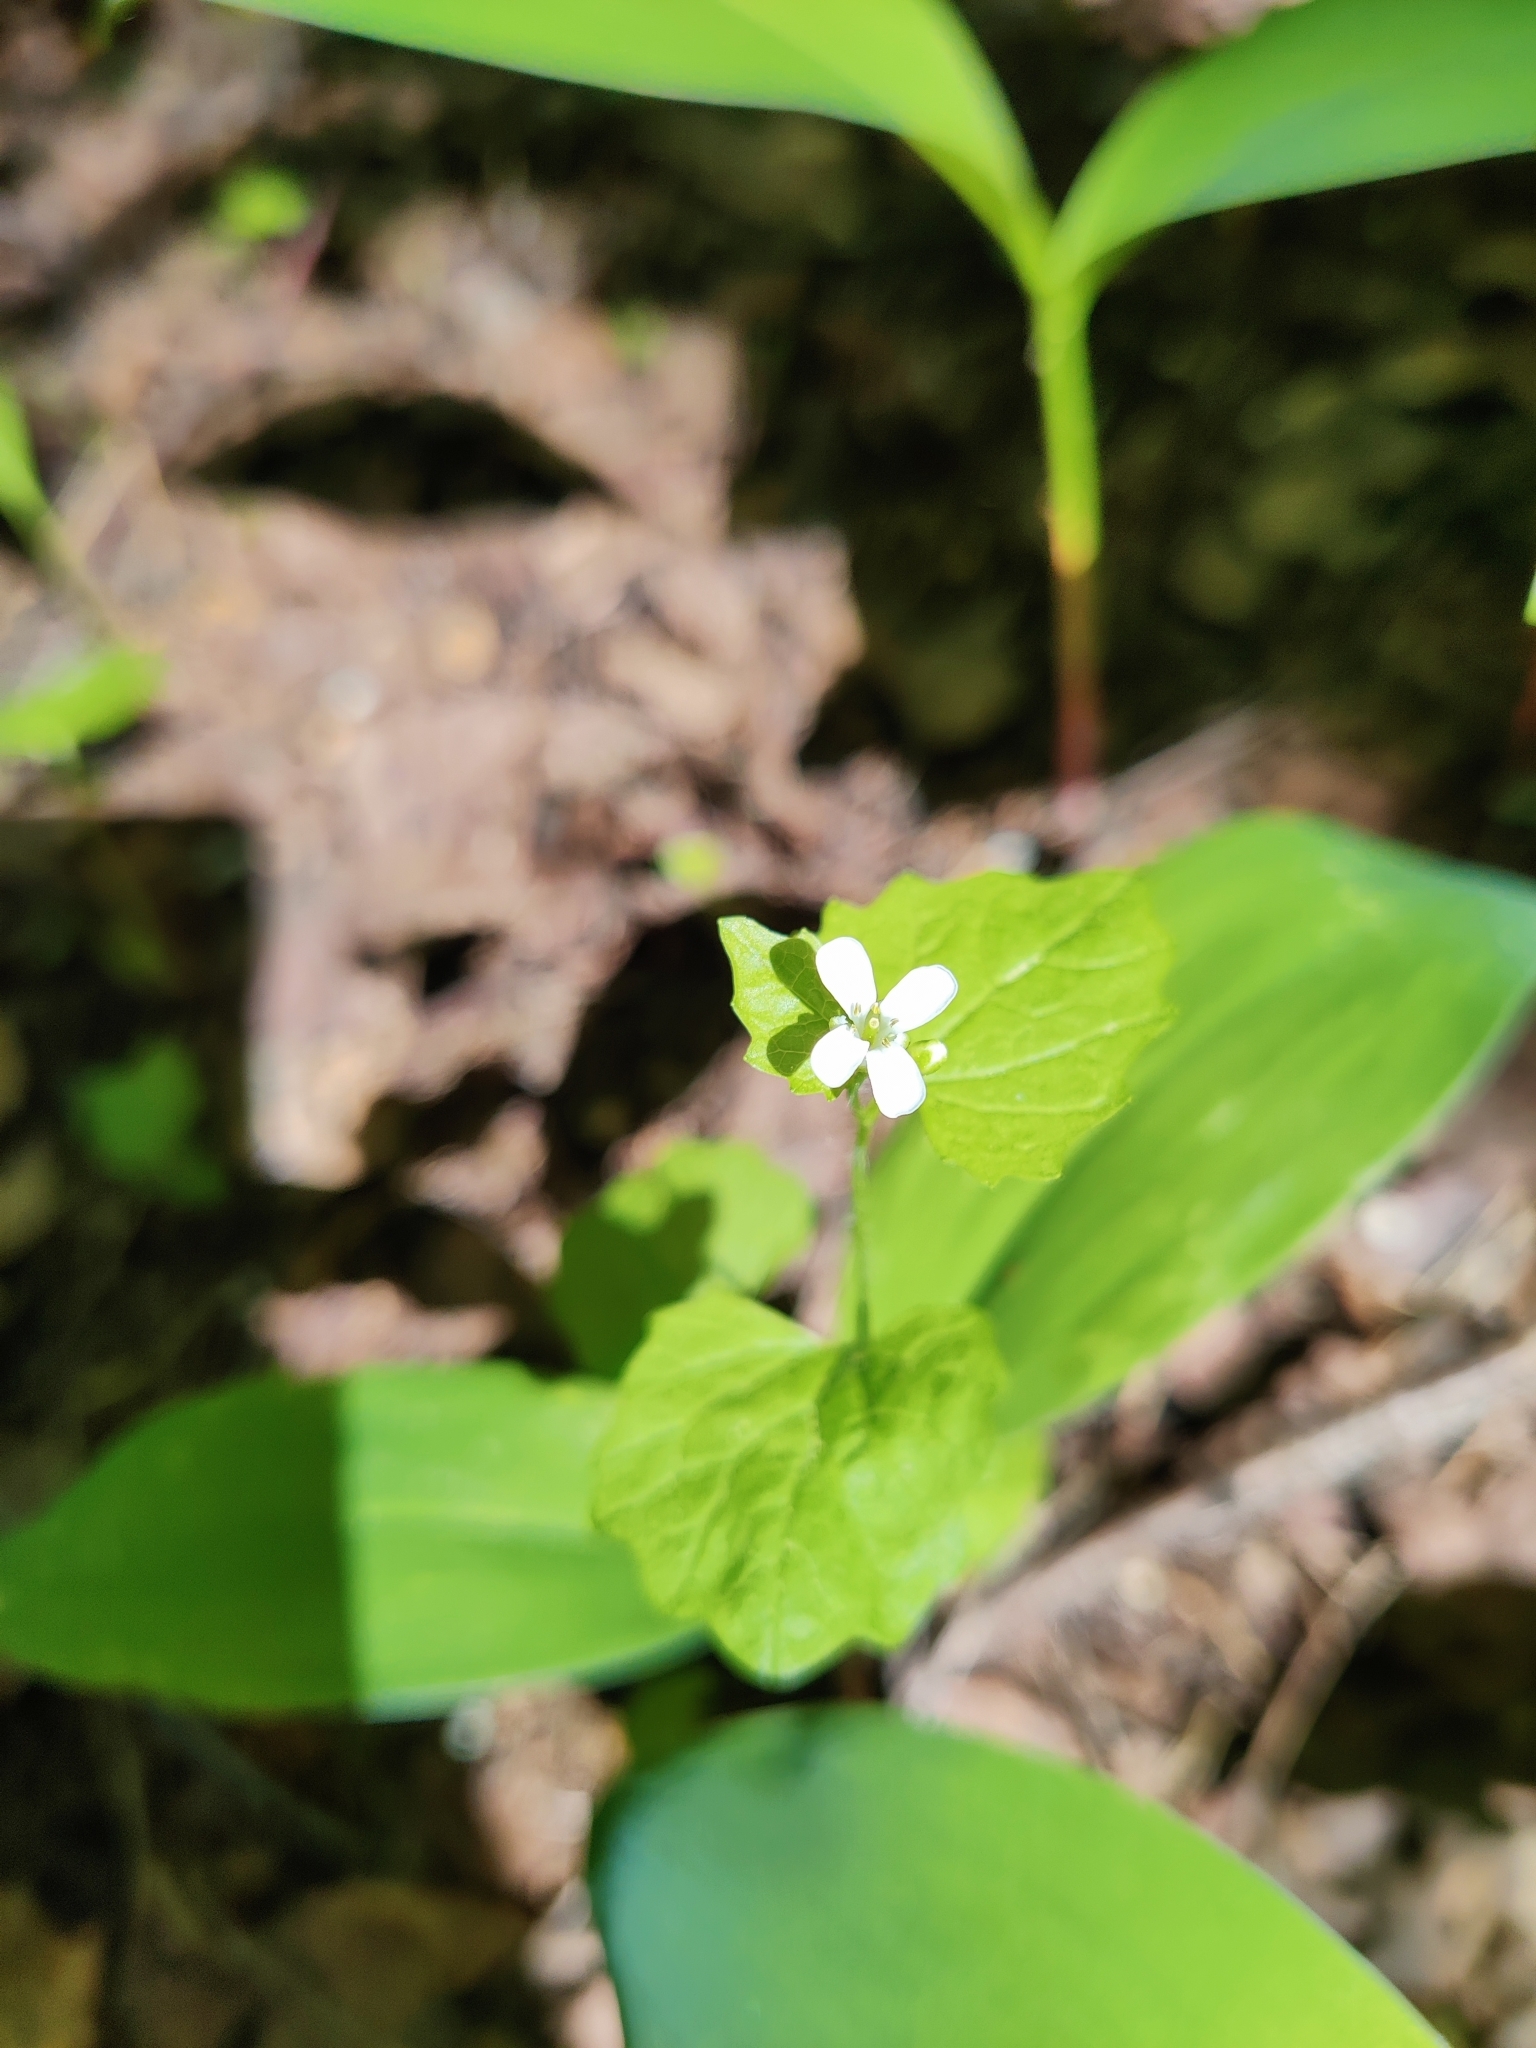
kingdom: Plantae
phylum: Tracheophyta
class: Magnoliopsida
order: Brassicales
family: Brassicaceae
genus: Alliaria
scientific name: Alliaria petiolata
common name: Garlic mustard
